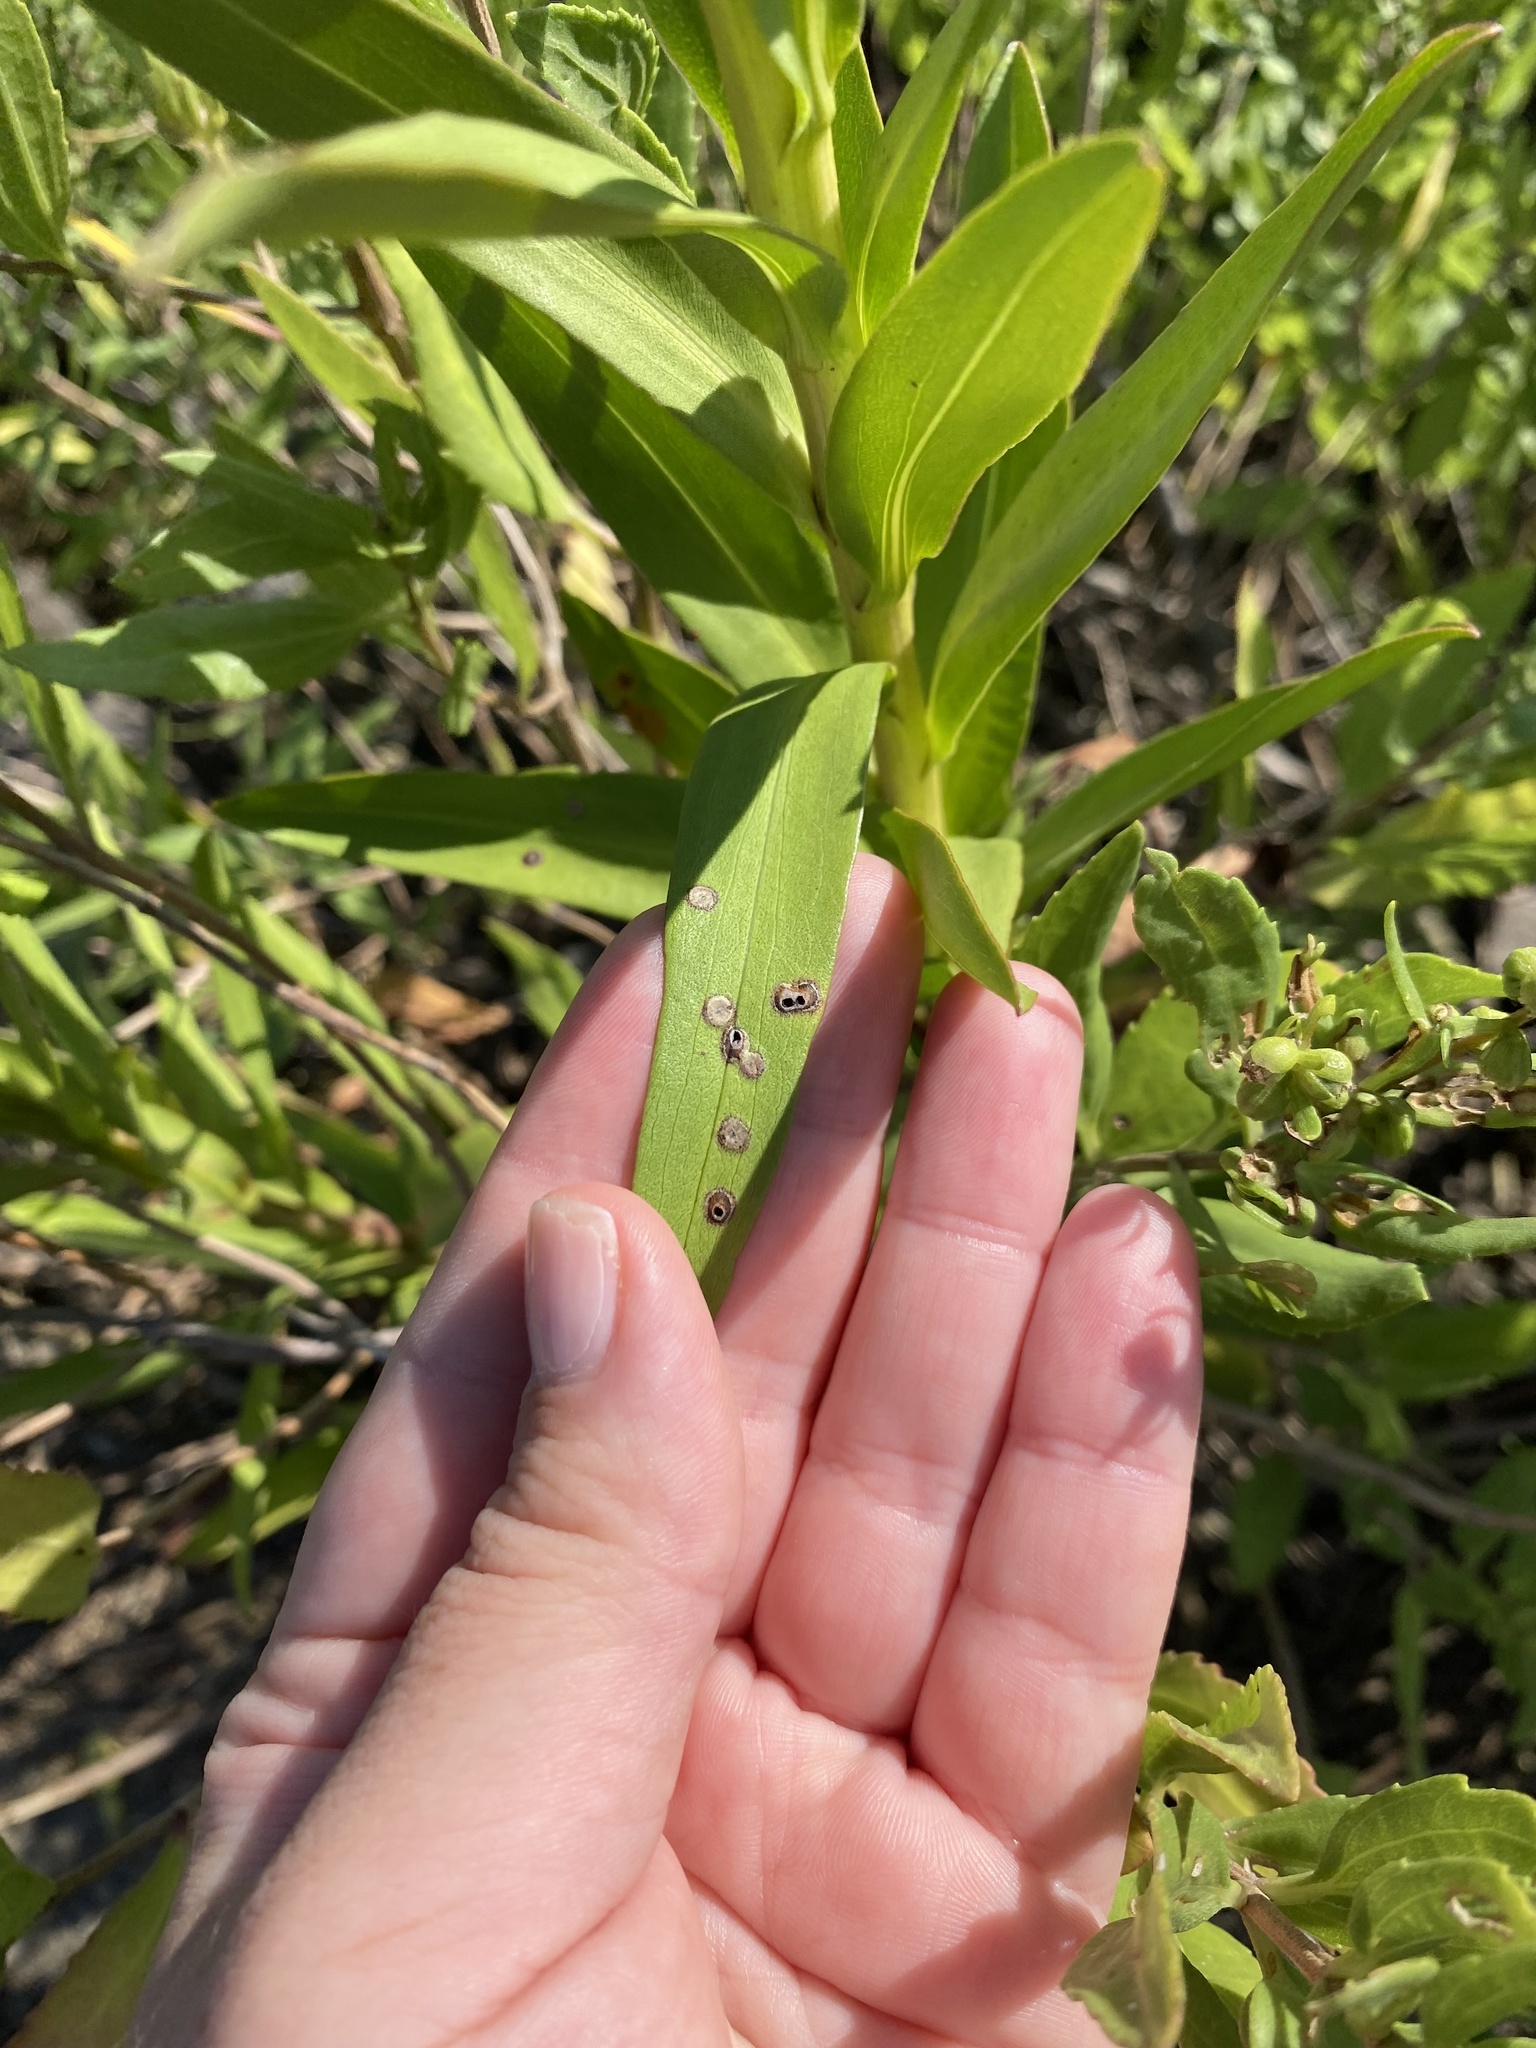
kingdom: Animalia
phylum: Arthropoda
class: Insecta
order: Diptera
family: Cecidomyiidae
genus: Asteromyia
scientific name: Asteromyia carbonifera
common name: Carbonifera goldenrod gall midge
